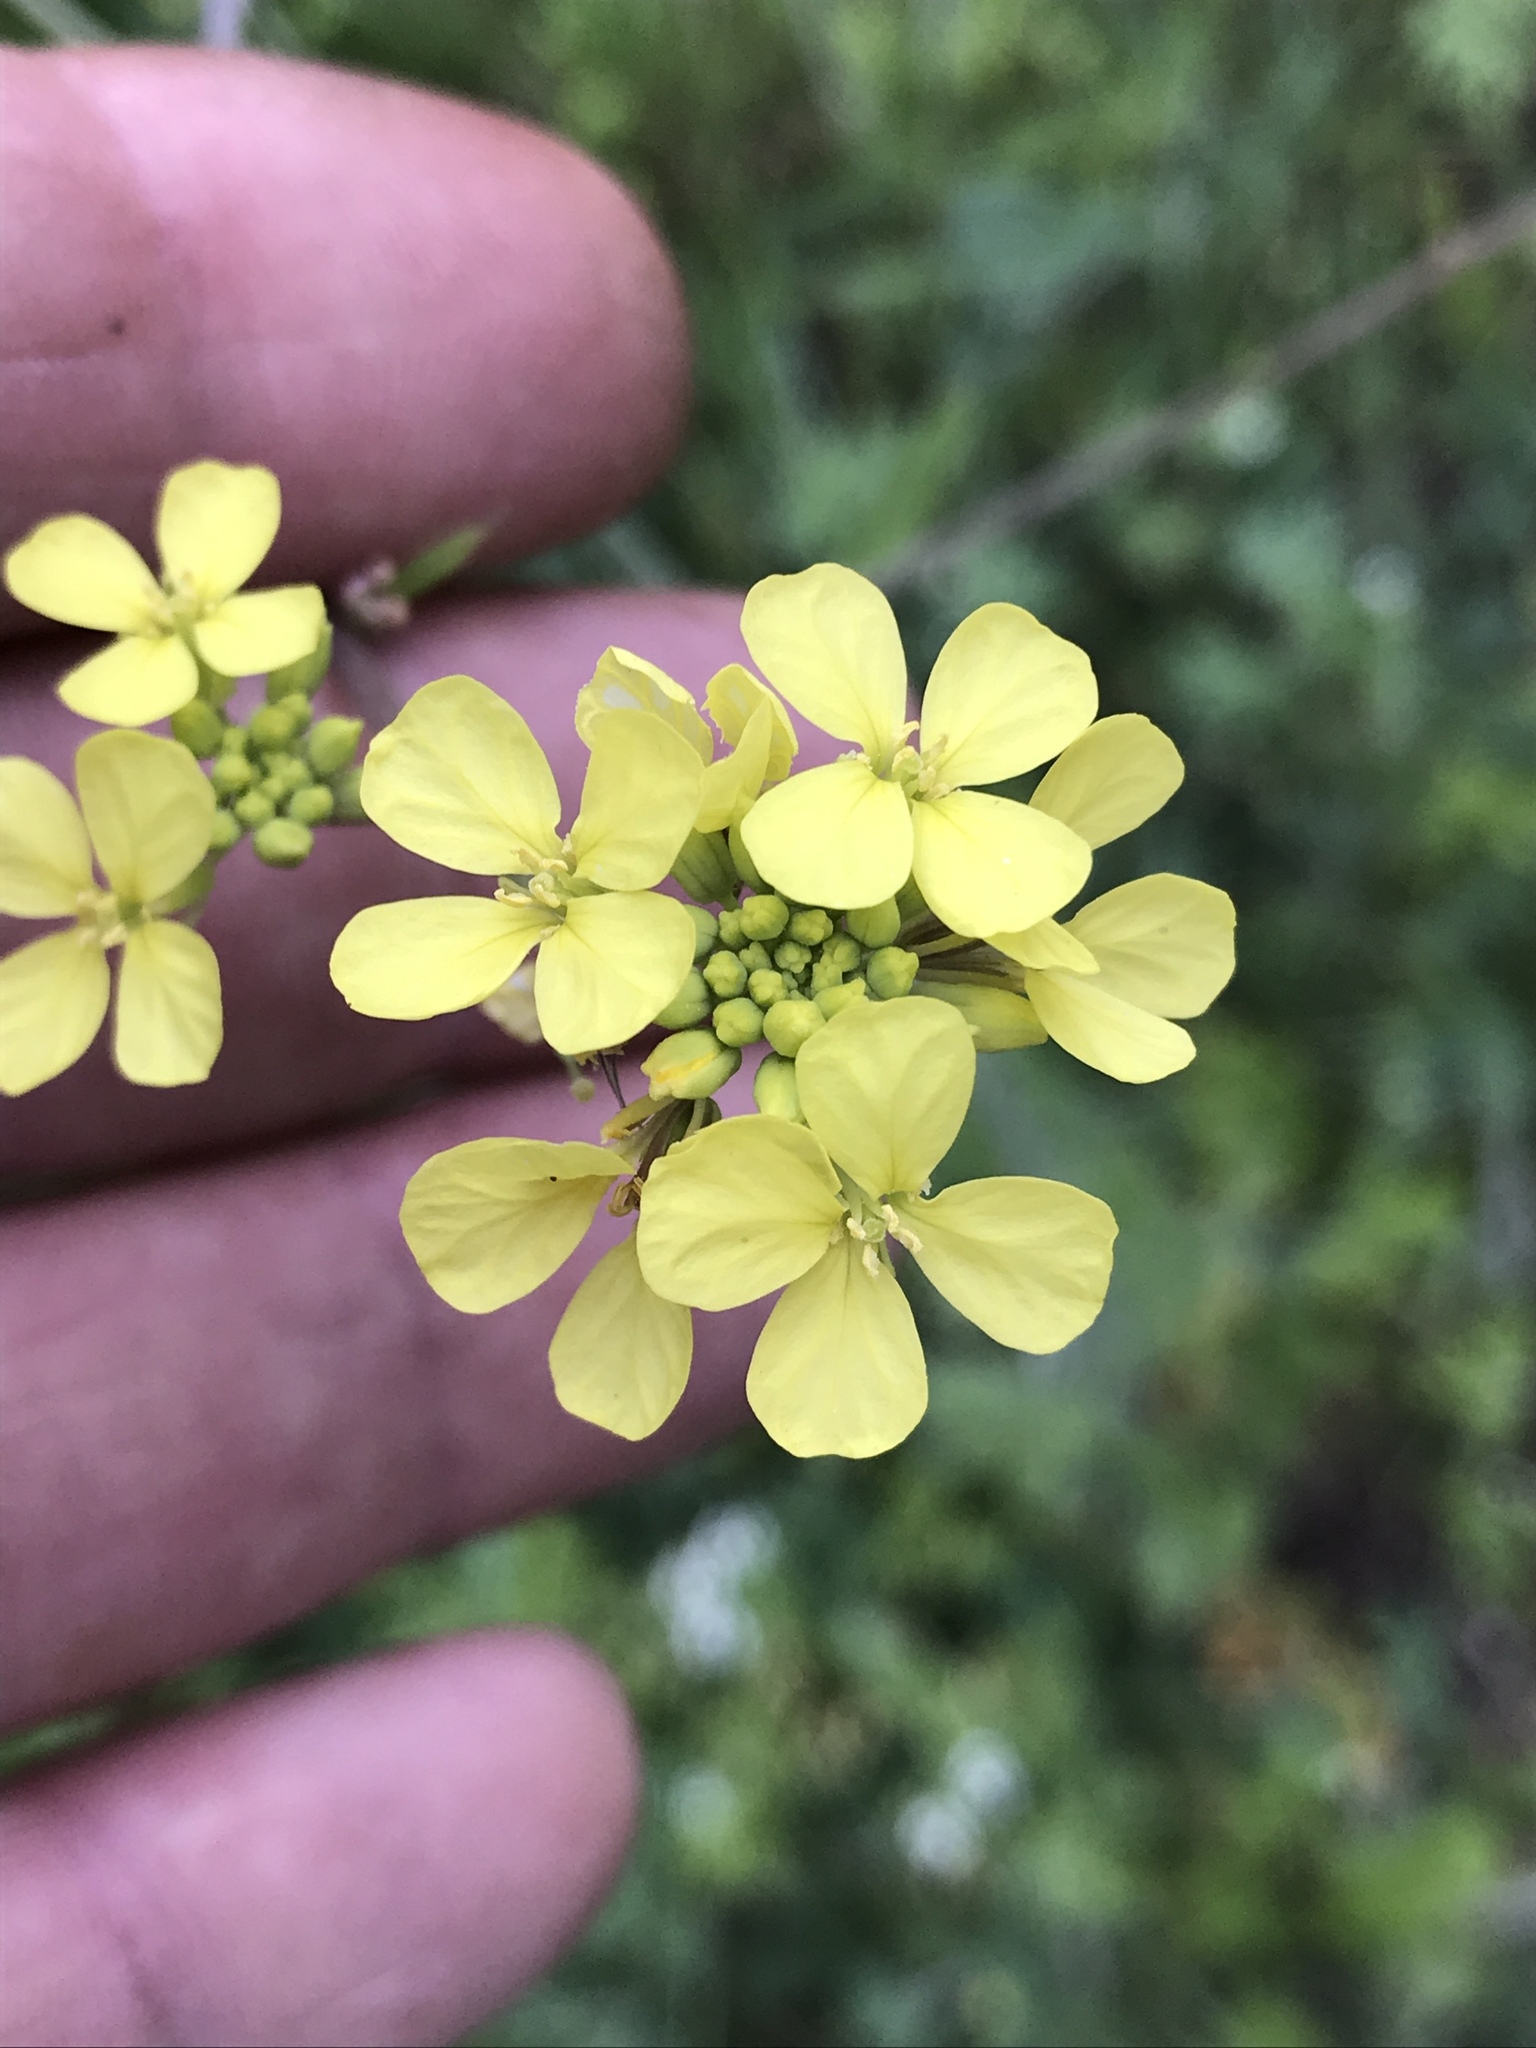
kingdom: Plantae
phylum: Tracheophyta
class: Magnoliopsida
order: Brassicales
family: Brassicaceae
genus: Rapistrum
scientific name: Rapistrum rugosum
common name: Annual bastardcabbage
